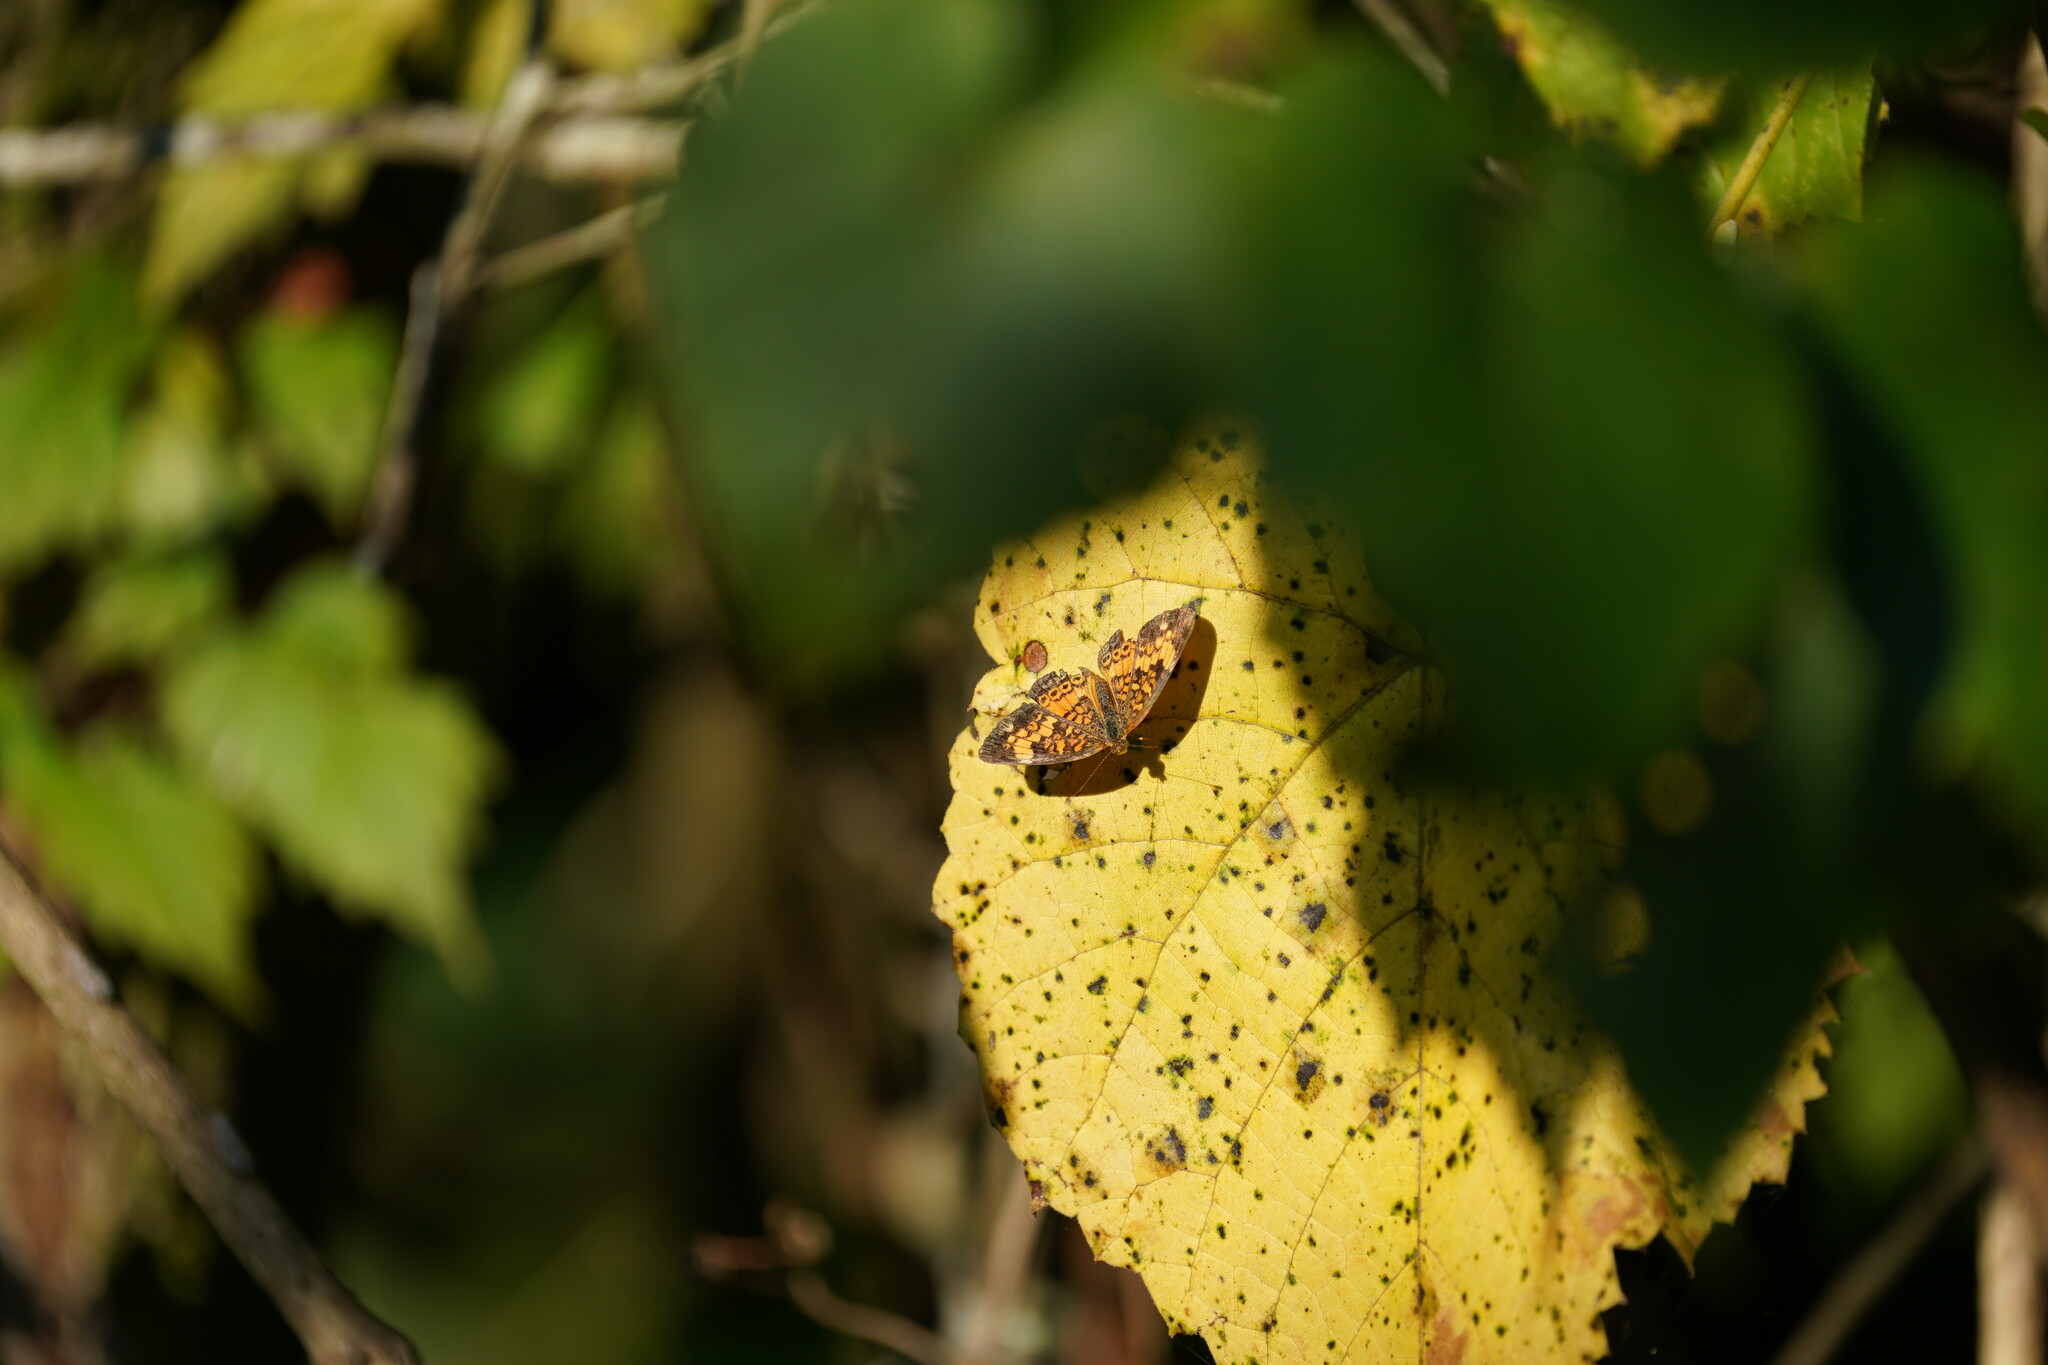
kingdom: Animalia
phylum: Arthropoda
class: Insecta
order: Lepidoptera
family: Nymphalidae
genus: Phyciodes
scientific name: Phyciodes tharos
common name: Pearl crescent
